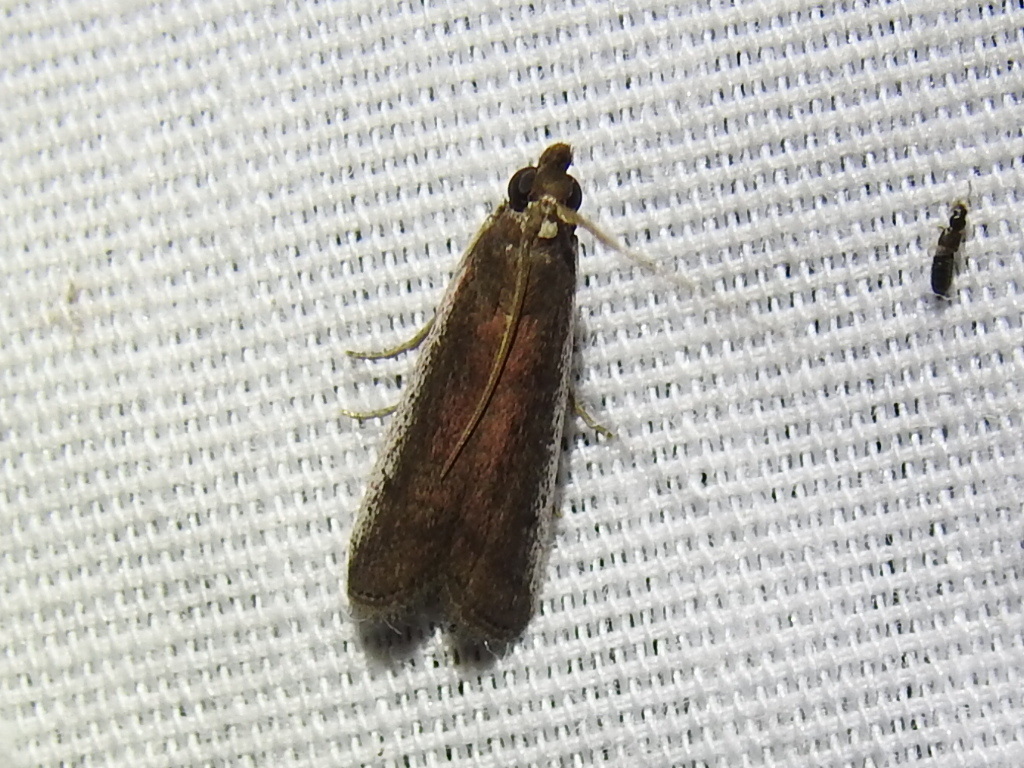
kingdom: Animalia
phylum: Arthropoda
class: Insecta
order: Lepidoptera
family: Pyralidae
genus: Tampa
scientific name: Tampa dimediatella
